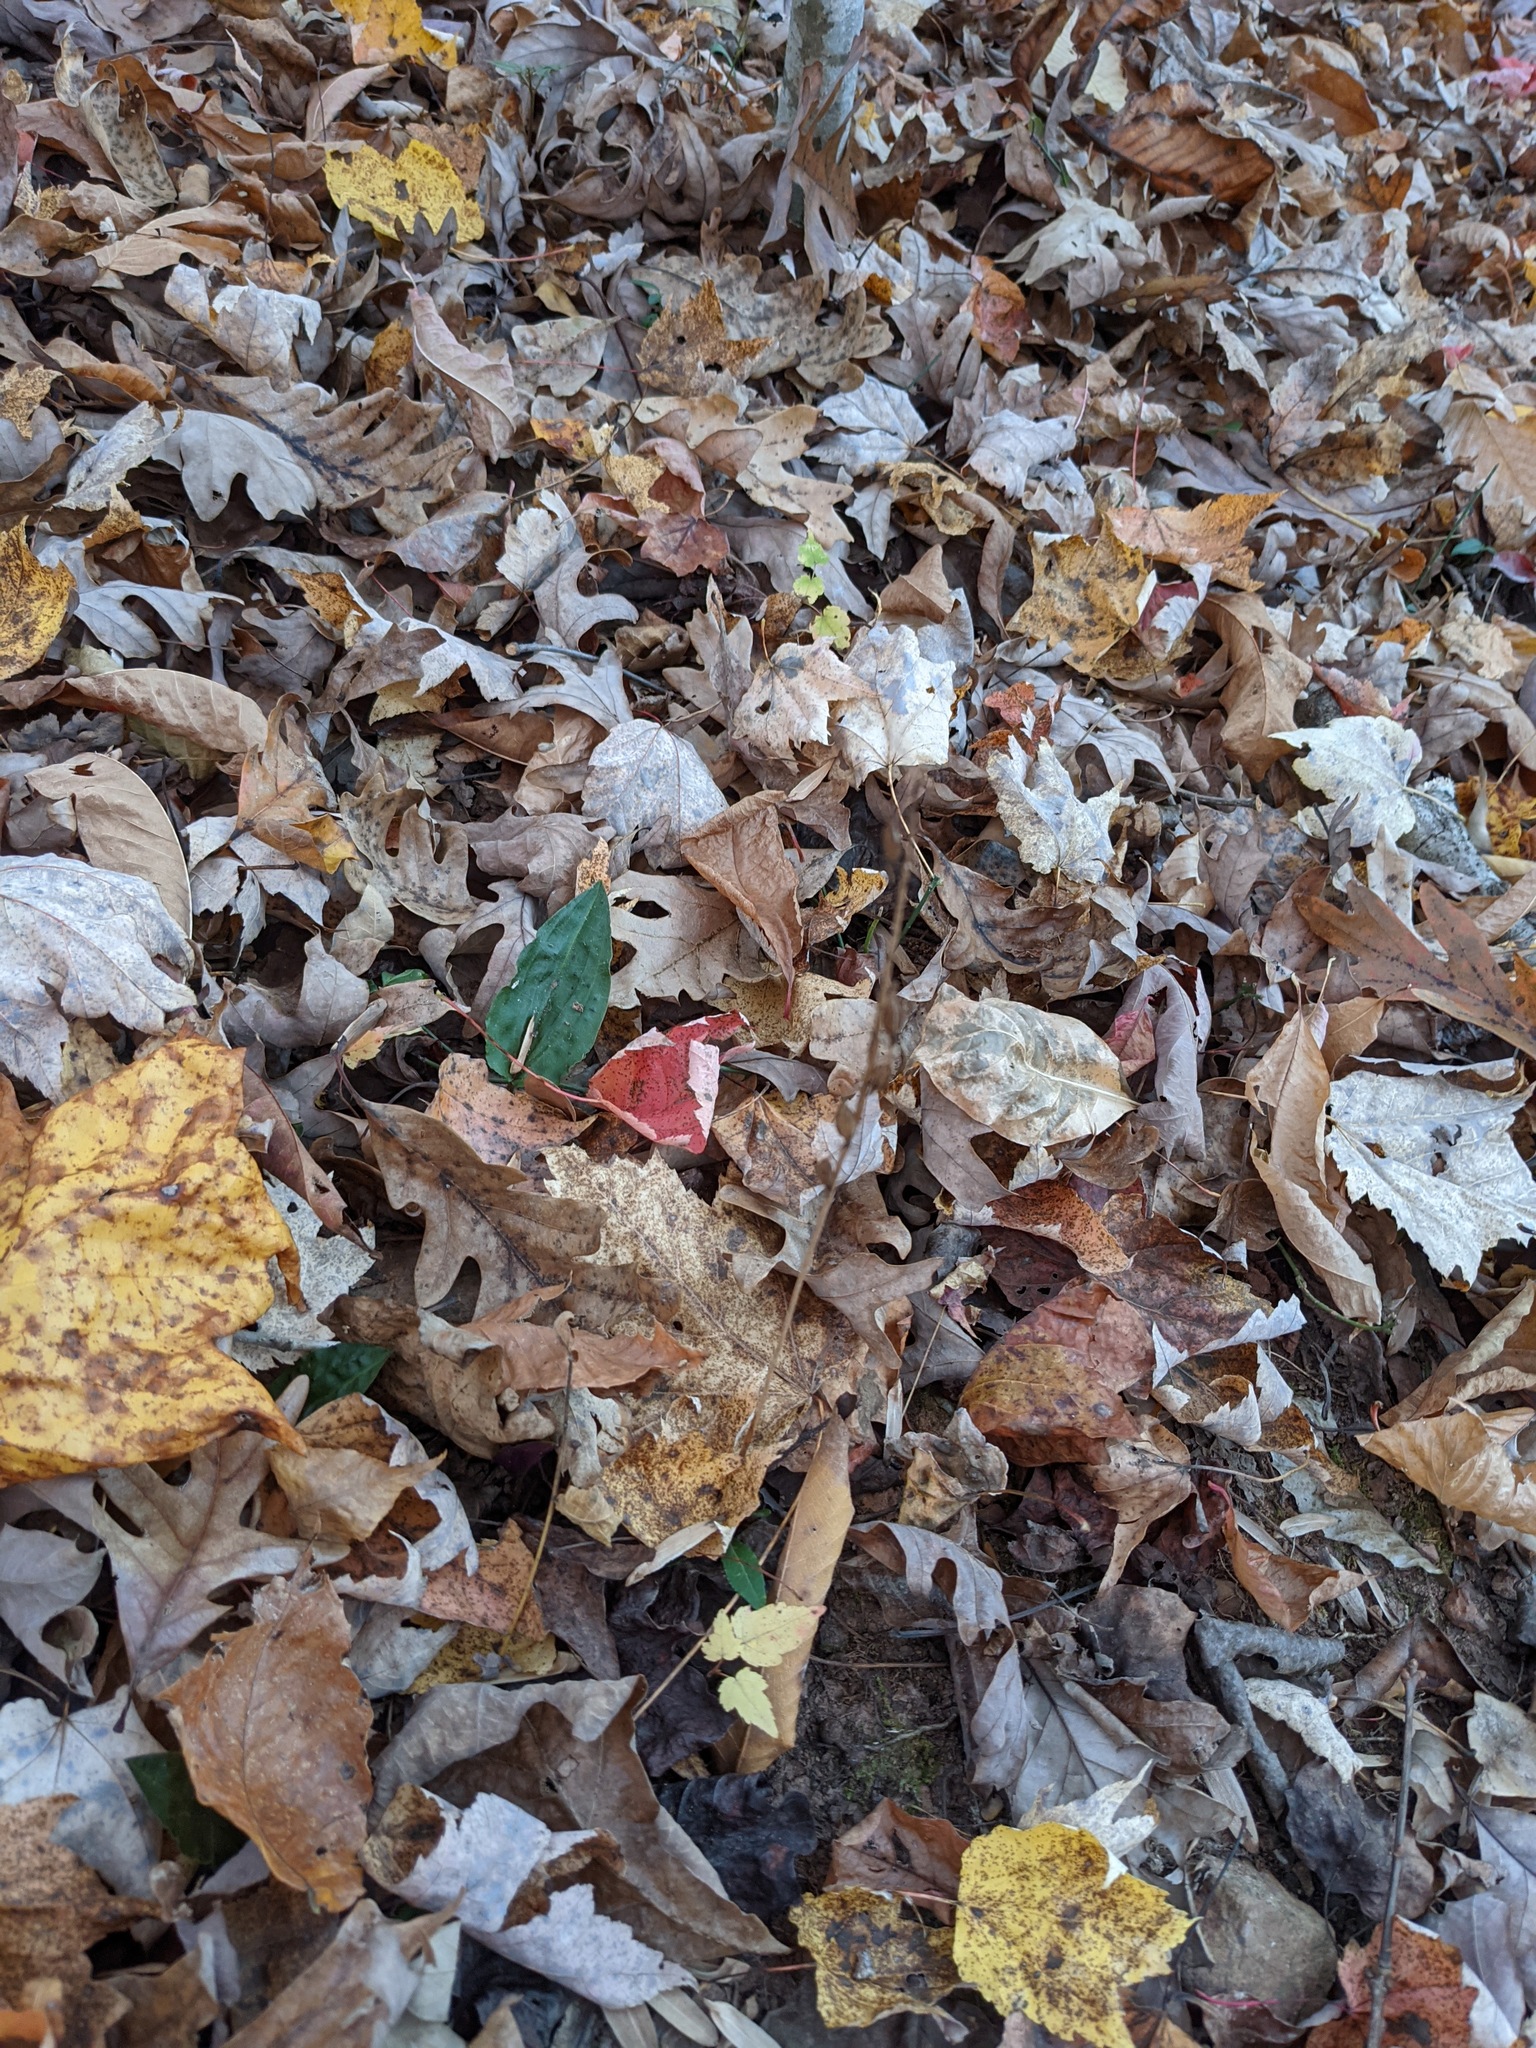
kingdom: Plantae
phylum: Tracheophyta
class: Liliopsida
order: Asparagales
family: Orchidaceae
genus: Tipularia
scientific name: Tipularia discolor
